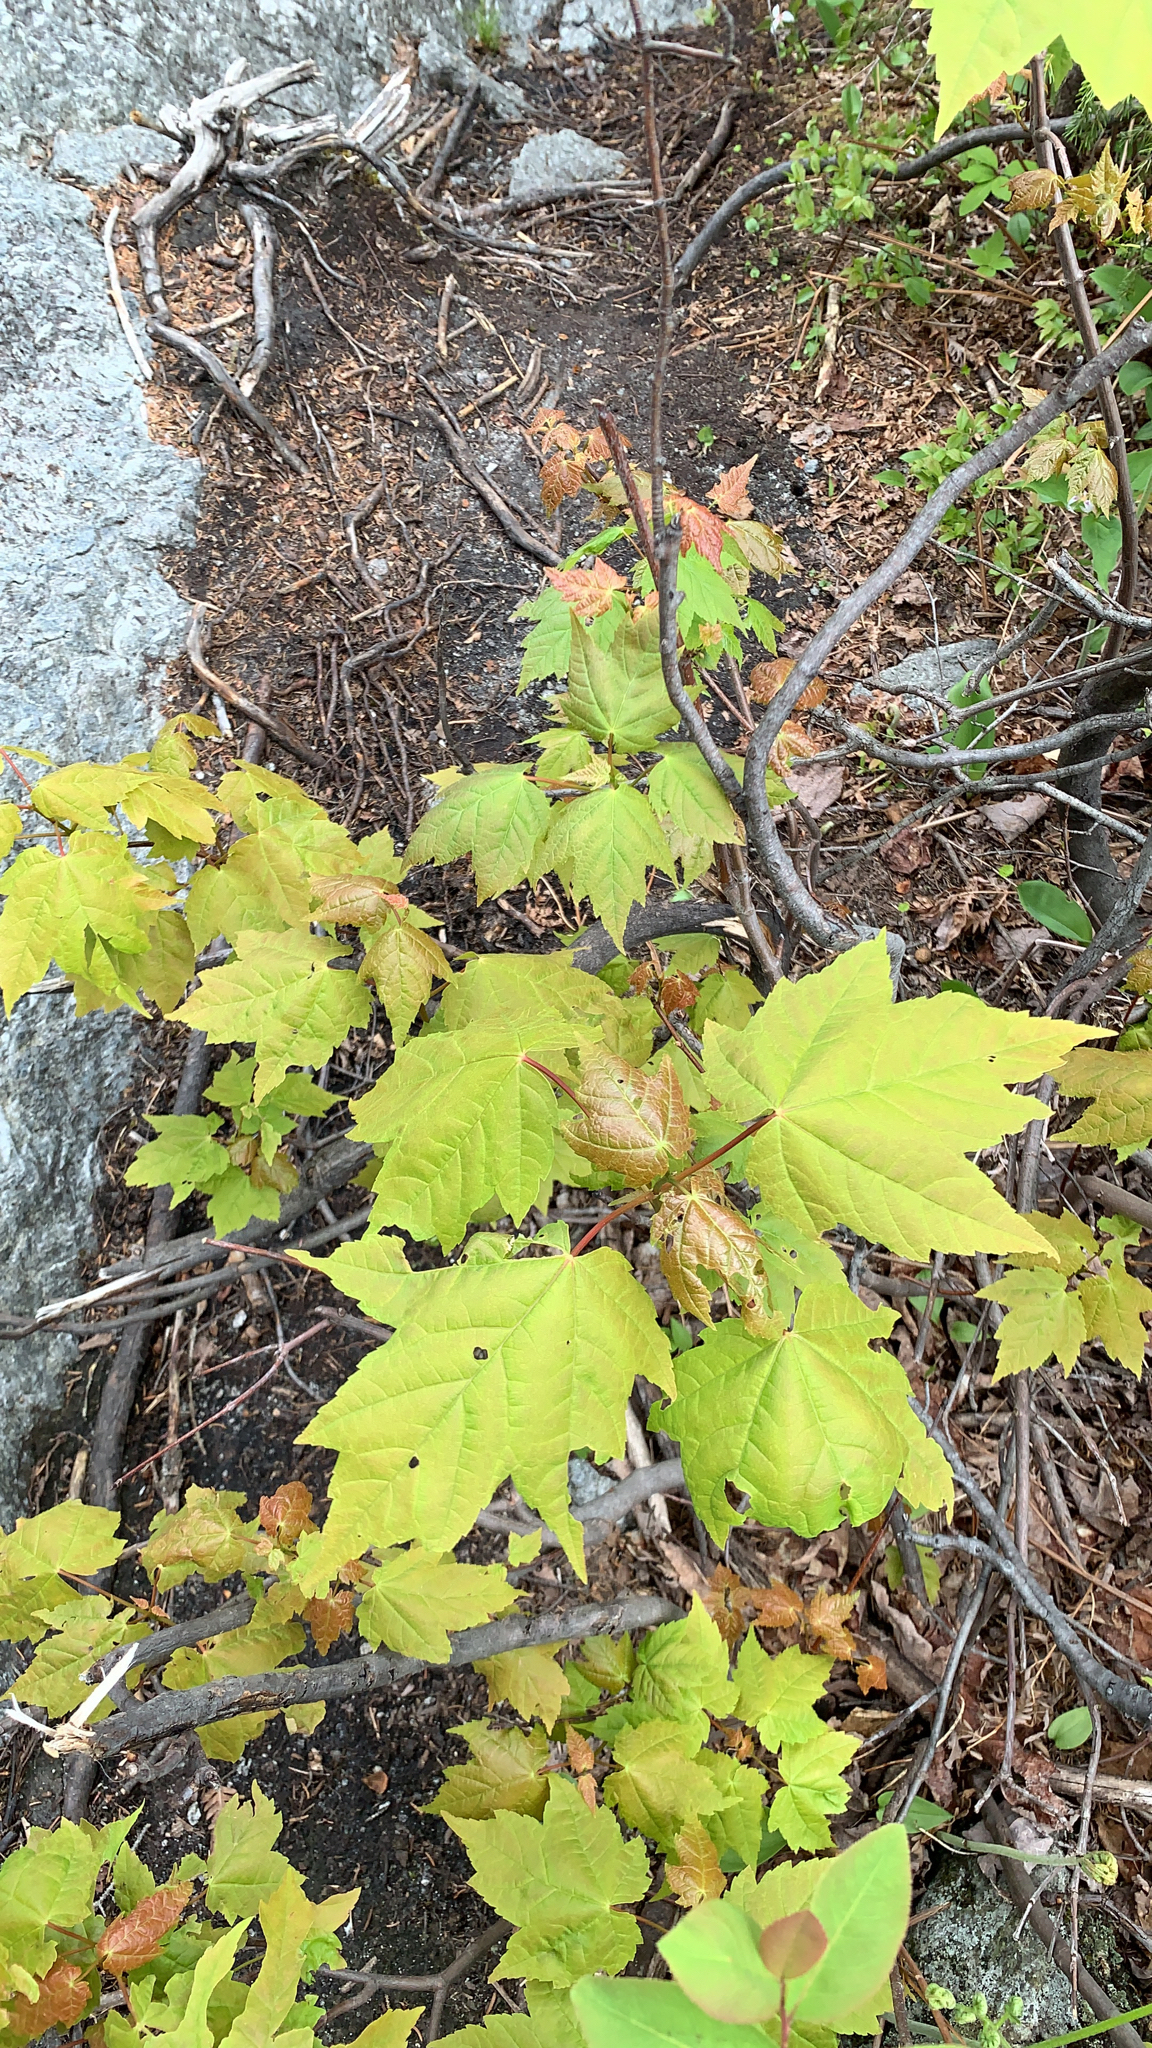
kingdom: Plantae
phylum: Tracheophyta
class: Magnoliopsida
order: Sapindales
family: Sapindaceae
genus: Acer
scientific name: Acer rubrum
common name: Red maple
